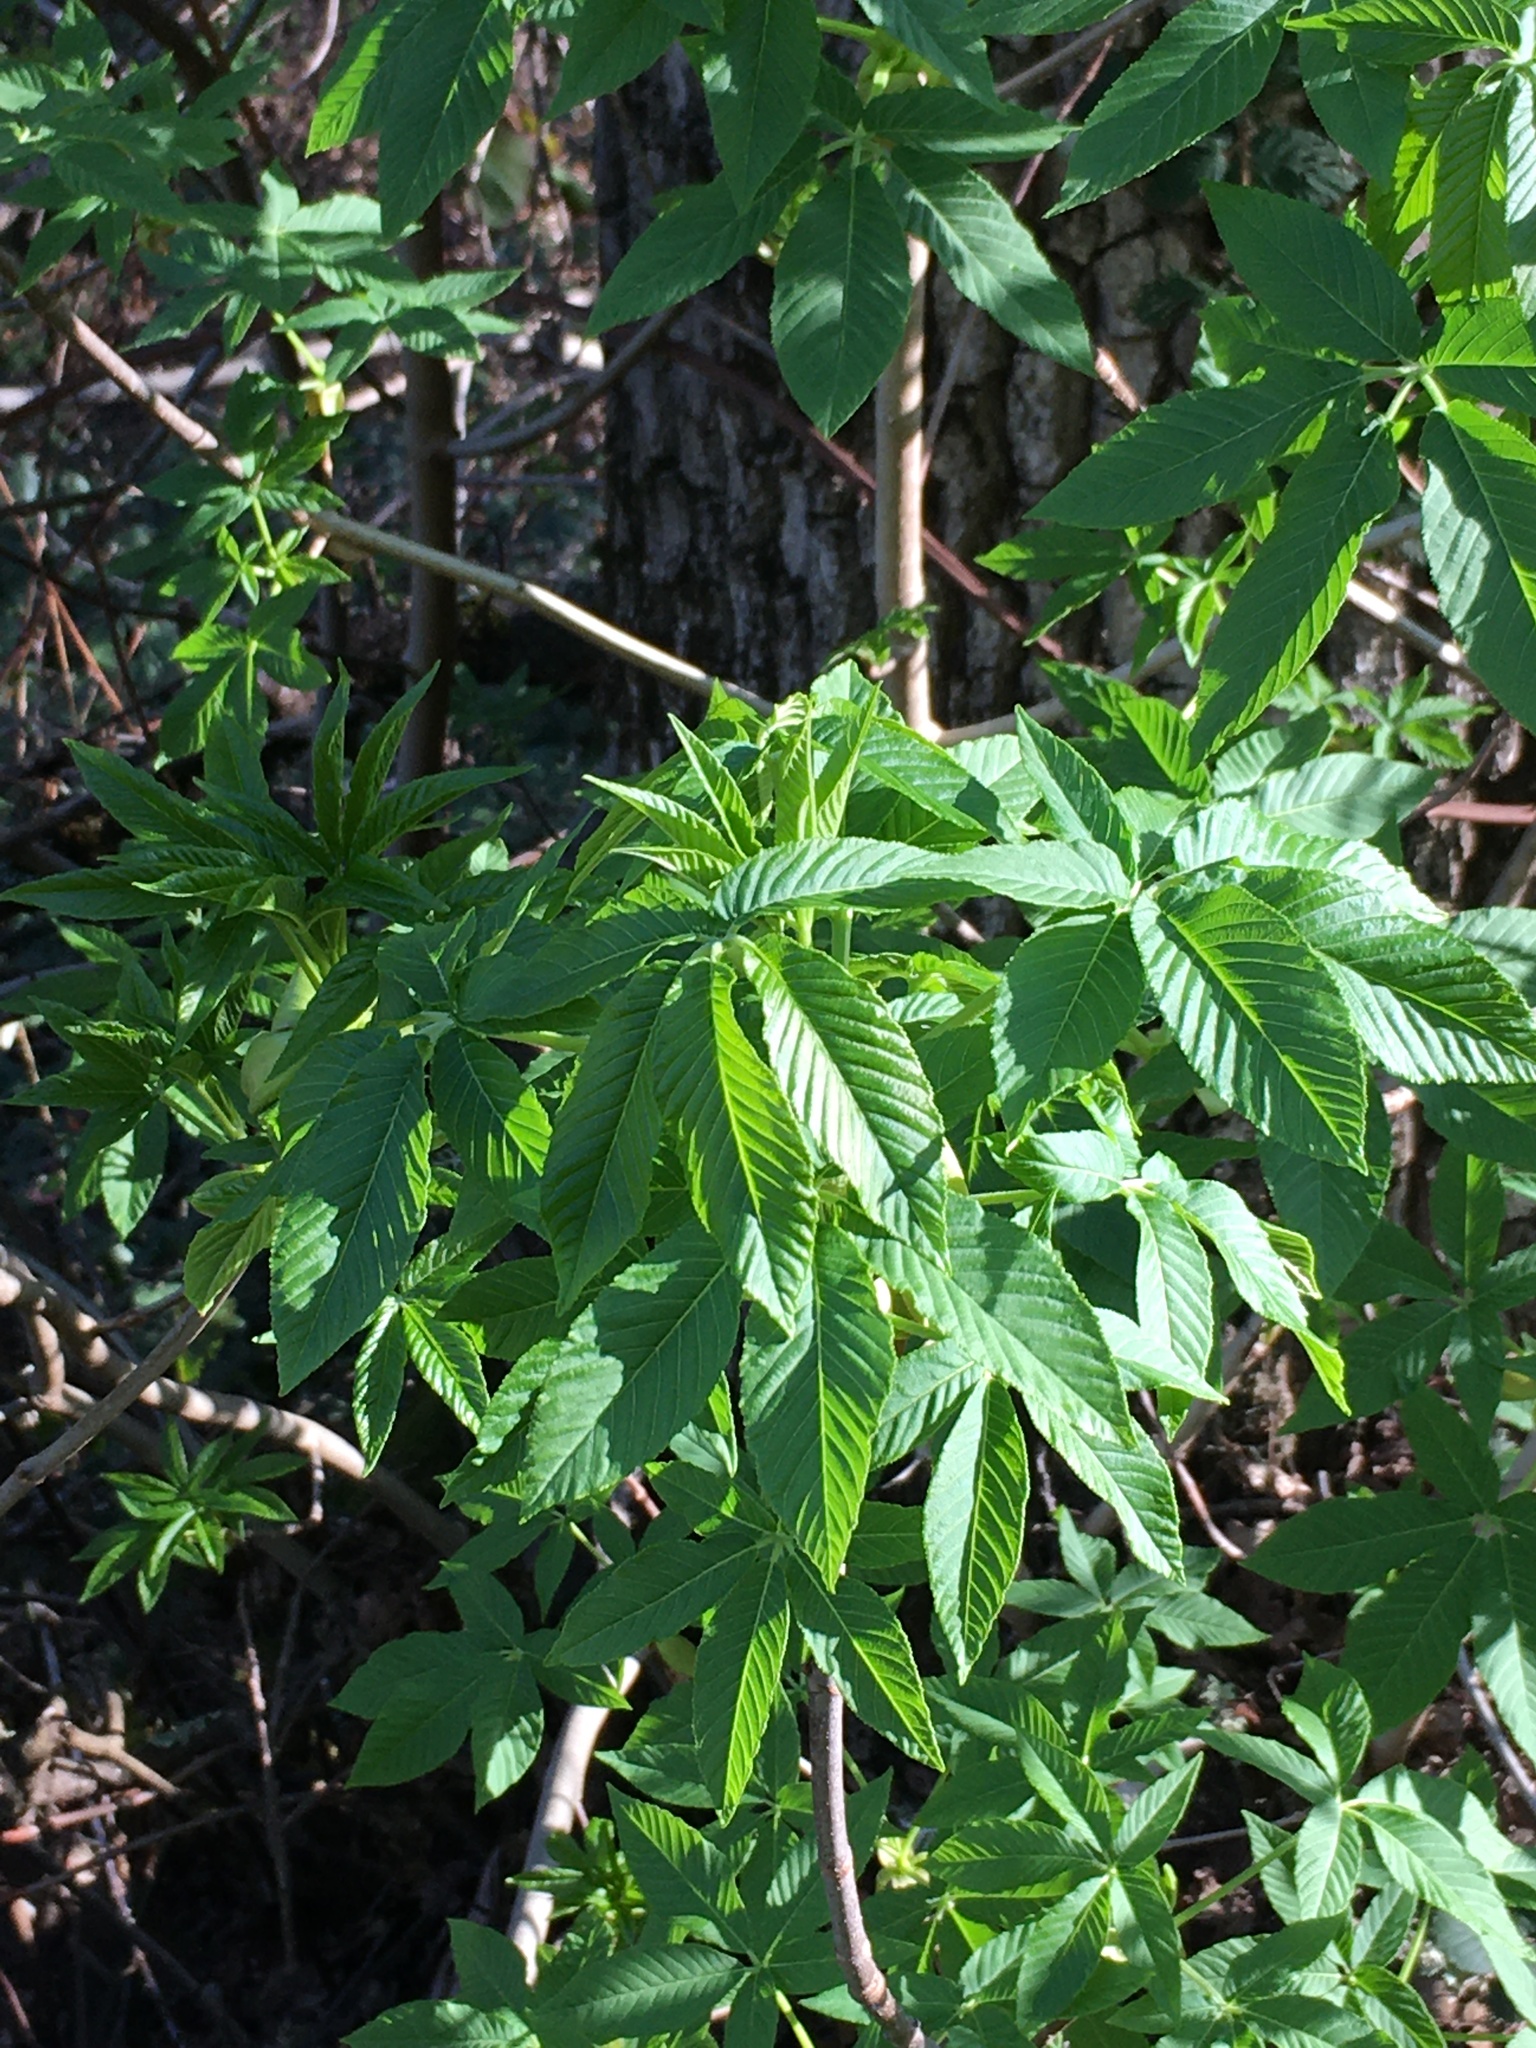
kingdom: Plantae
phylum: Tracheophyta
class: Magnoliopsida
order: Sapindales
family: Sapindaceae
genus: Aesculus
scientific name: Aesculus californica
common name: California buckeye
